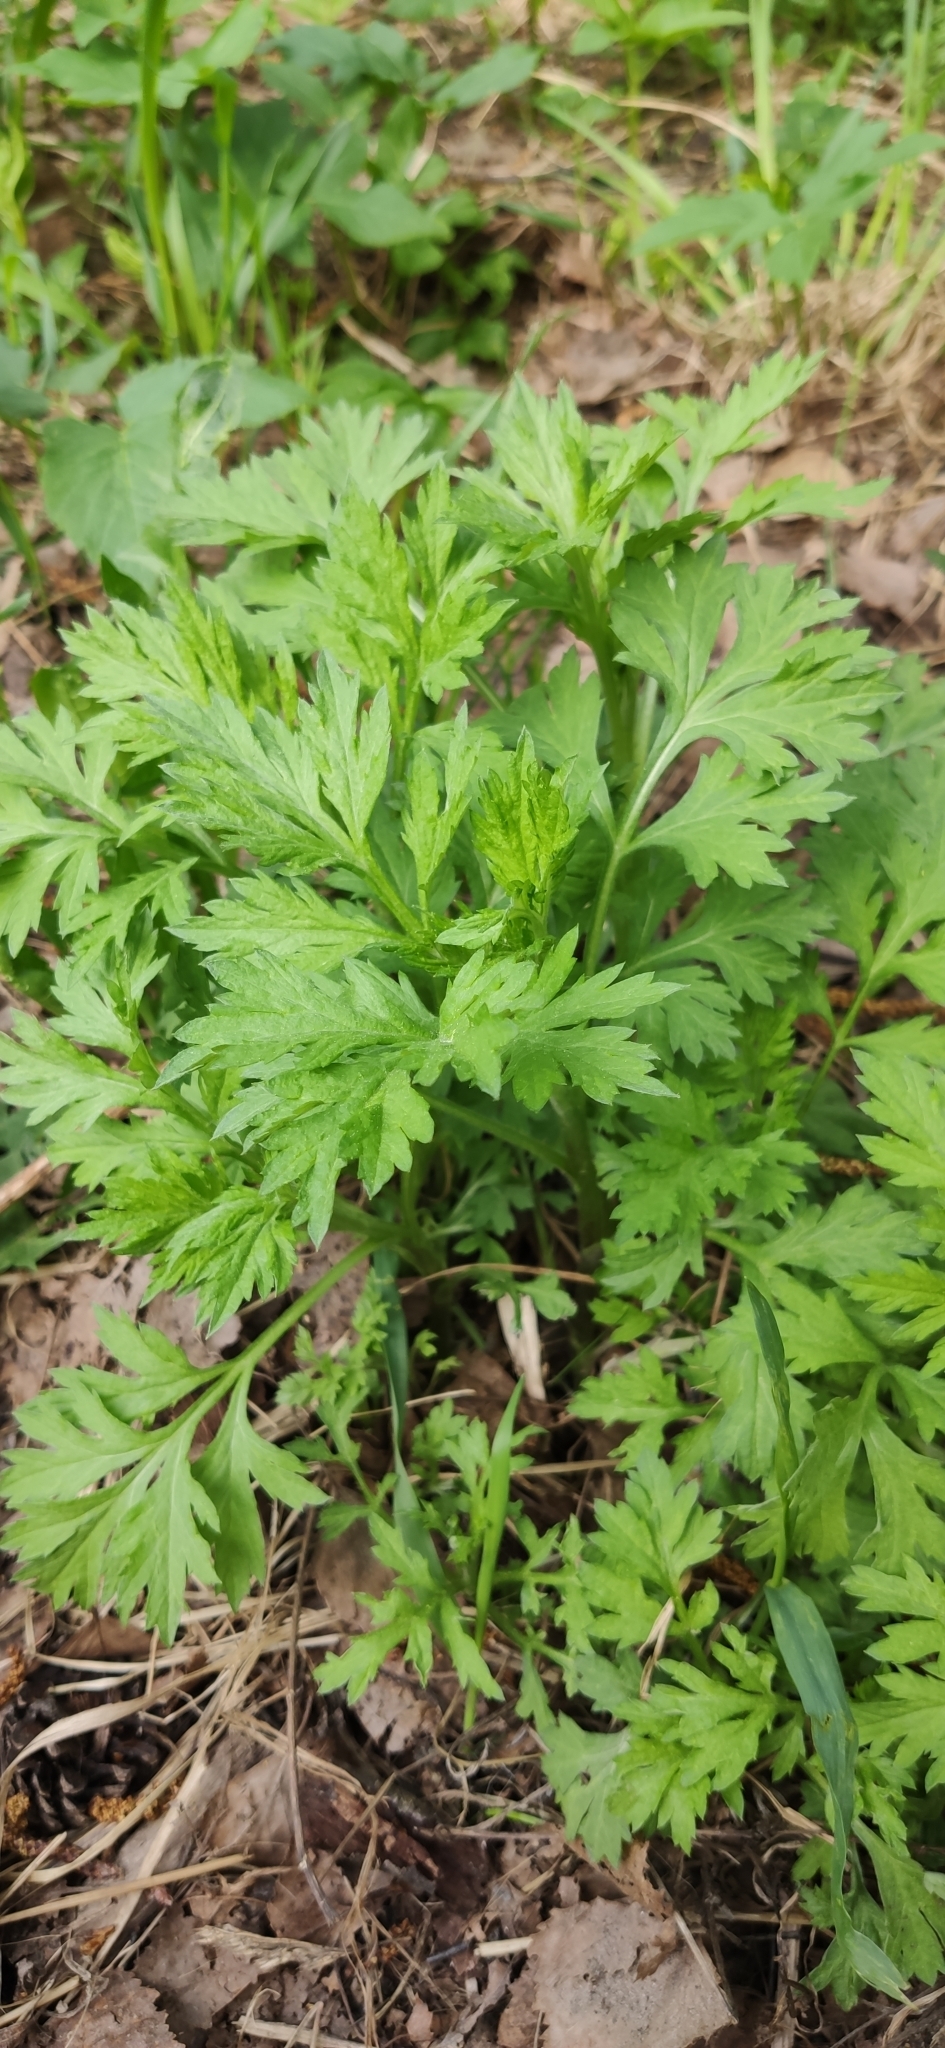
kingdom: Plantae
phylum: Tracheophyta
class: Magnoliopsida
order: Asterales
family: Asteraceae
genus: Artemisia
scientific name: Artemisia vulgaris
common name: Mugwort
